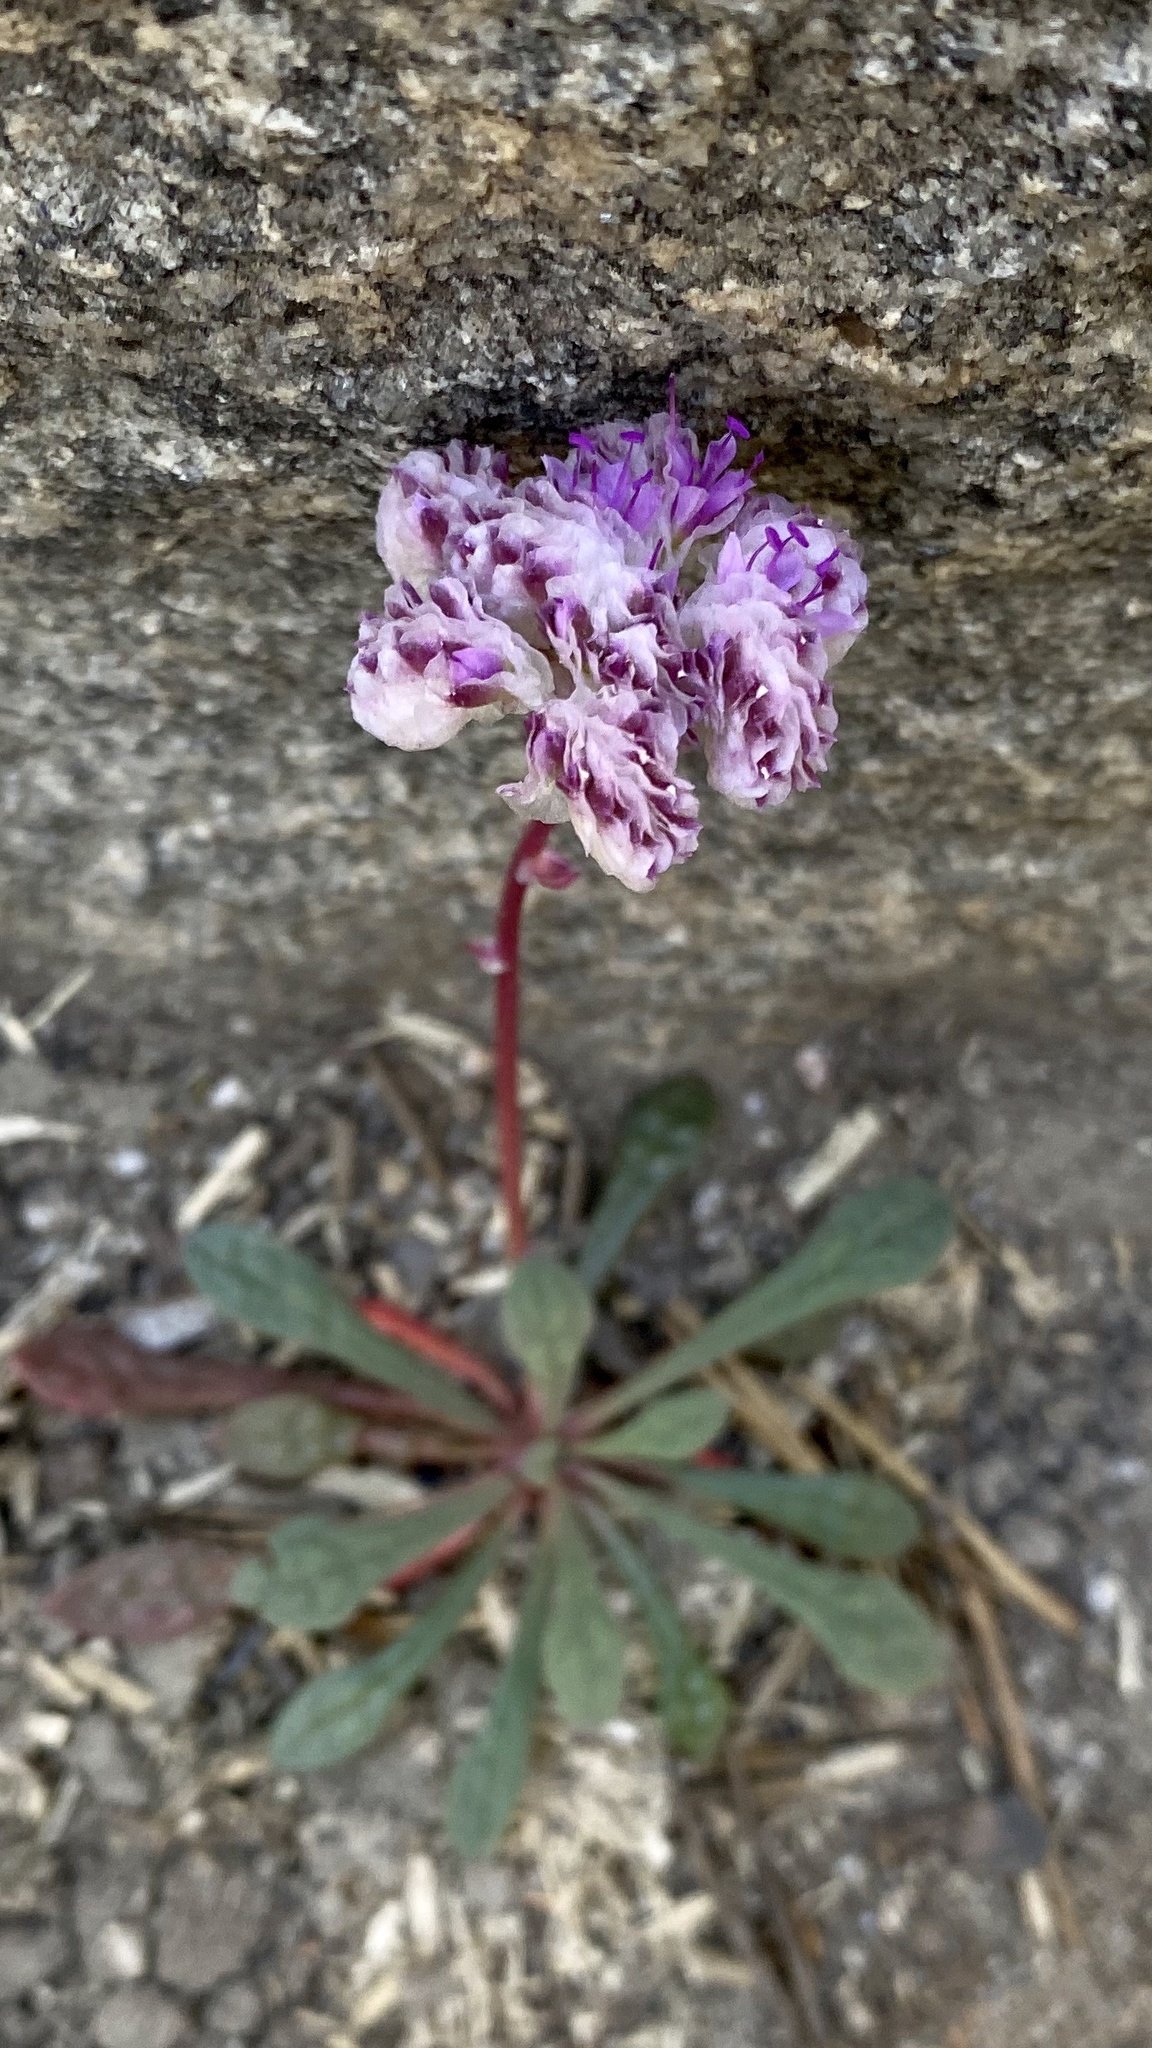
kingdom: Plantae
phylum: Tracheophyta
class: Magnoliopsida
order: Caryophyllales
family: Montiaceae
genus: Calyptridium
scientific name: Calyptridium monospermum
